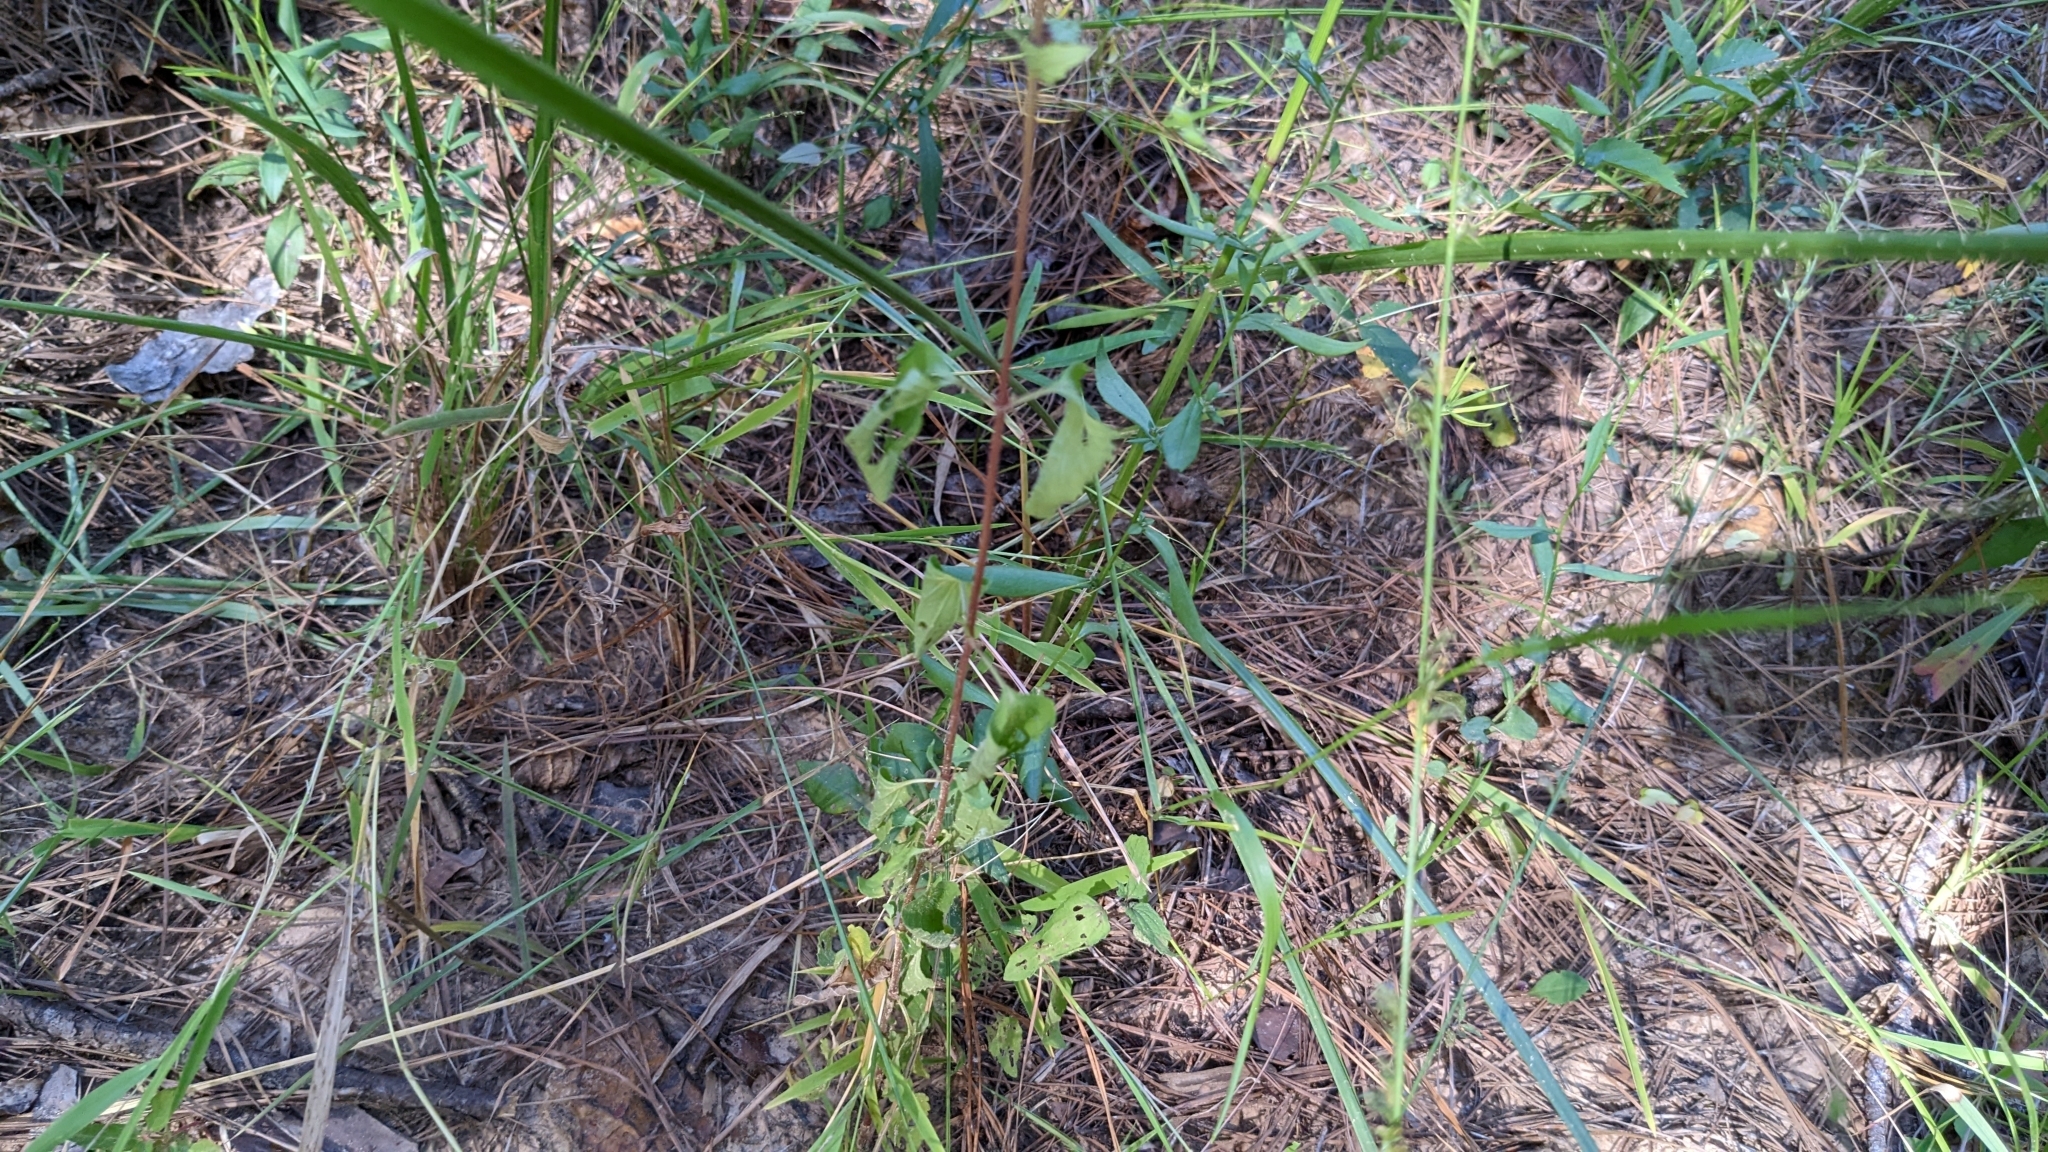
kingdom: Plantae
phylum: Tracheophyta
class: Magnoliopsida
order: Asterales
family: Asteraceae
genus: Conoclinium
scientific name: Conoclinium coelestinum
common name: Blue mistflower
